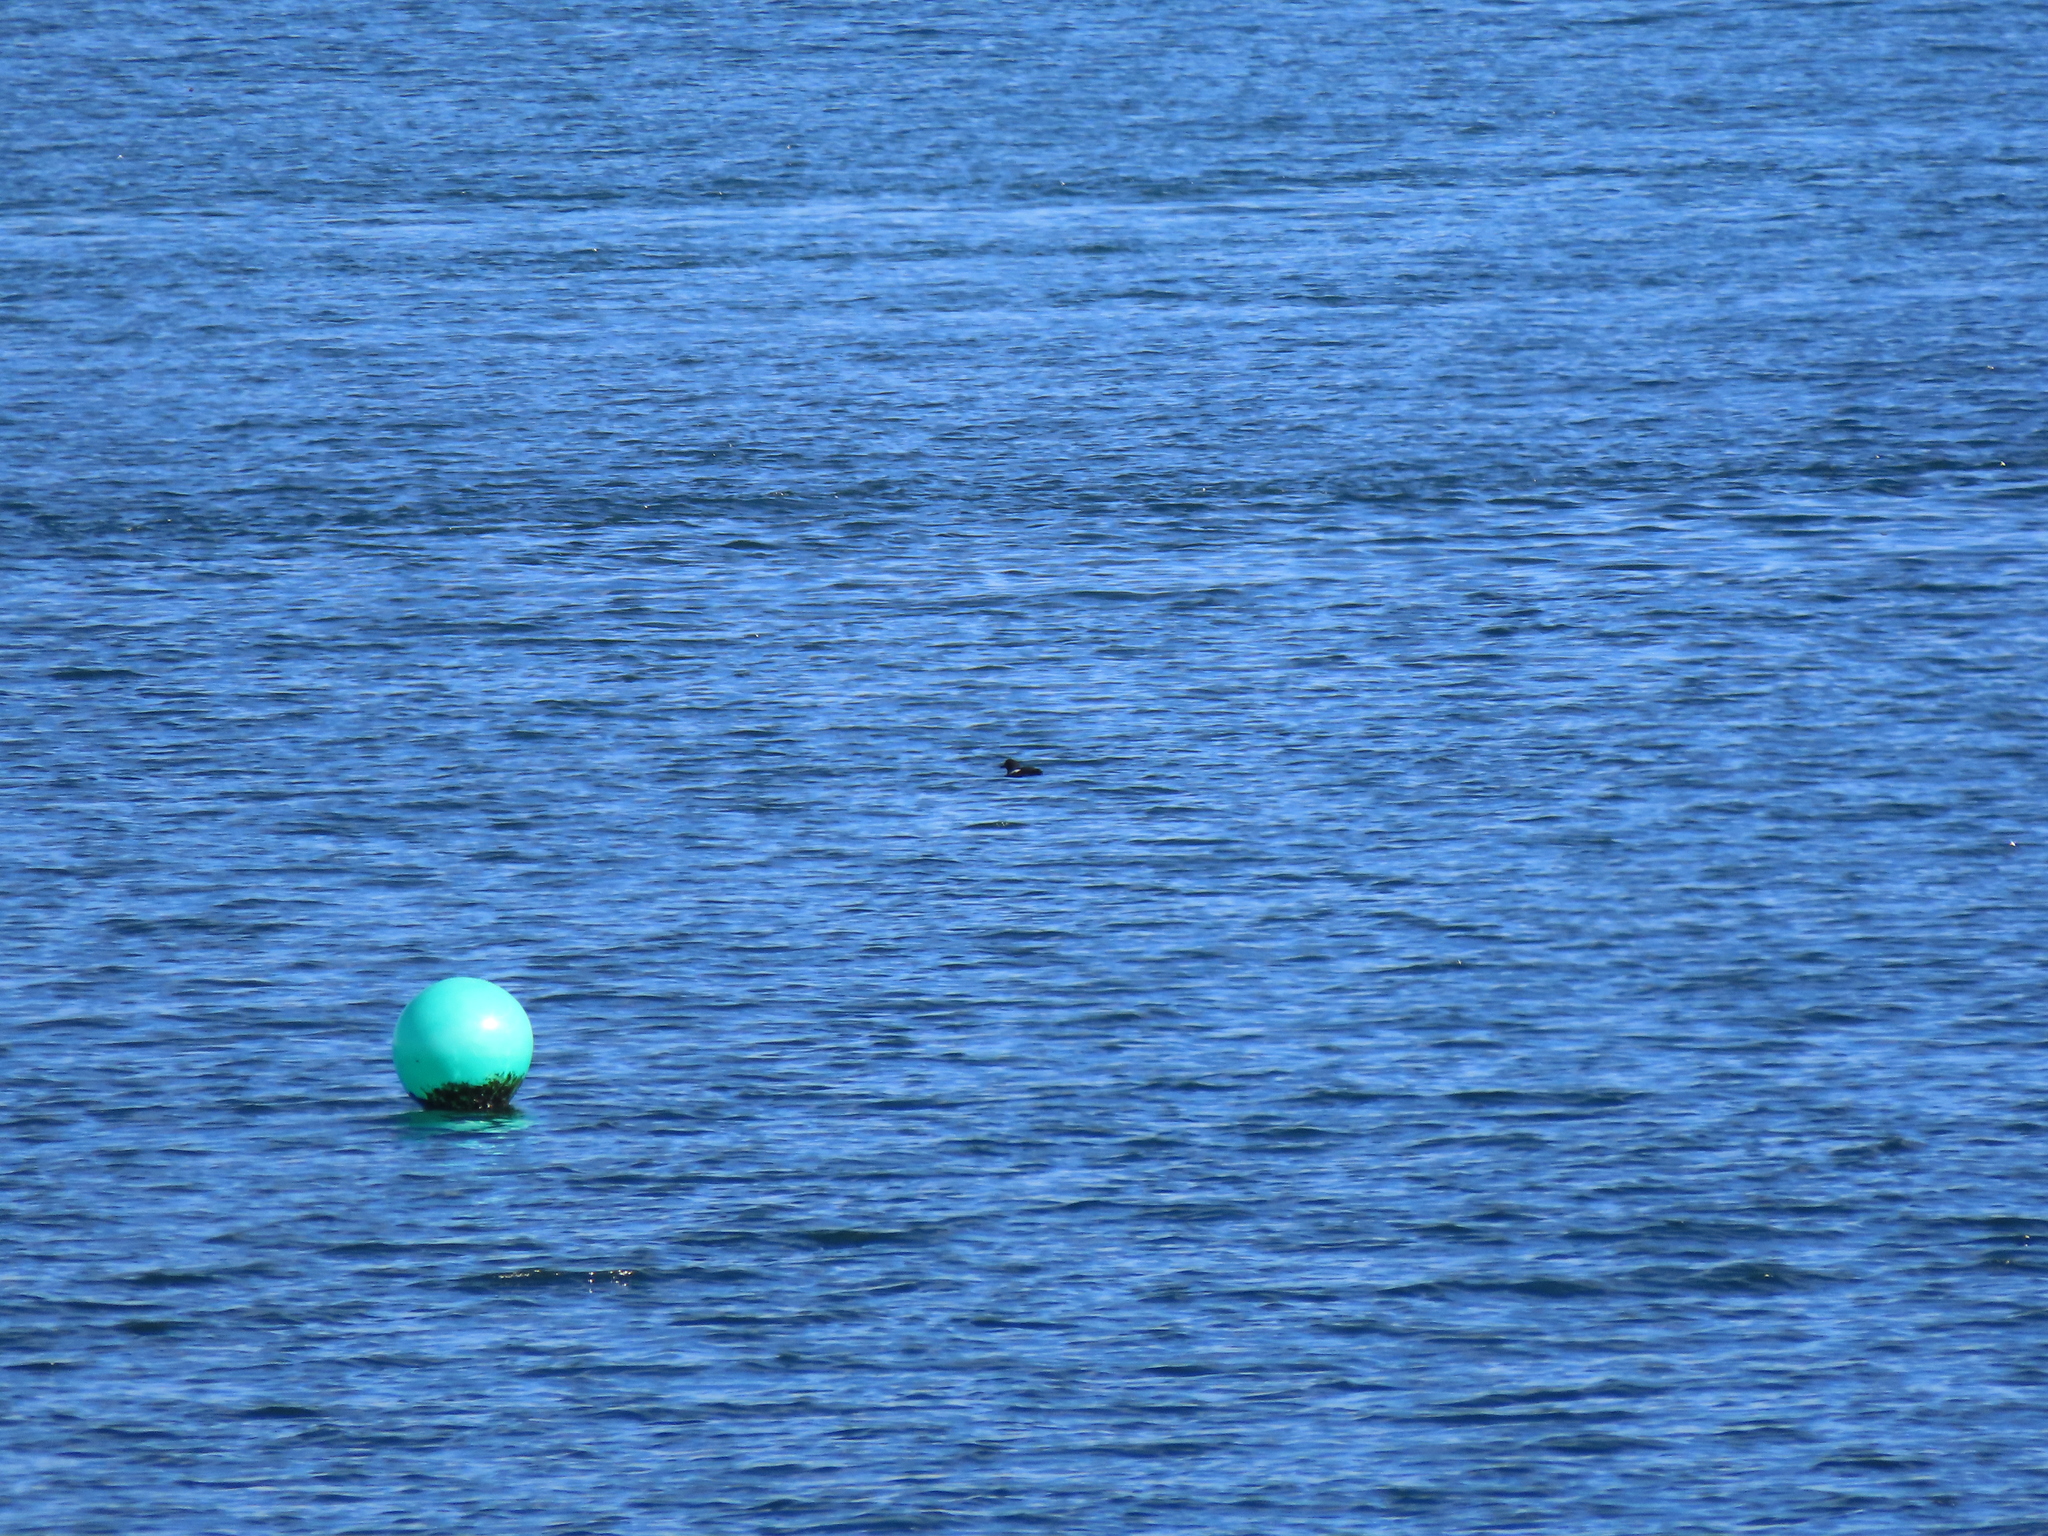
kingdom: Animalia
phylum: Chordata
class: Aves
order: Charadriiformes
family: Alcidae
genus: Cepphus
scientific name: Cepphus columba
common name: Pigeon guillemot
